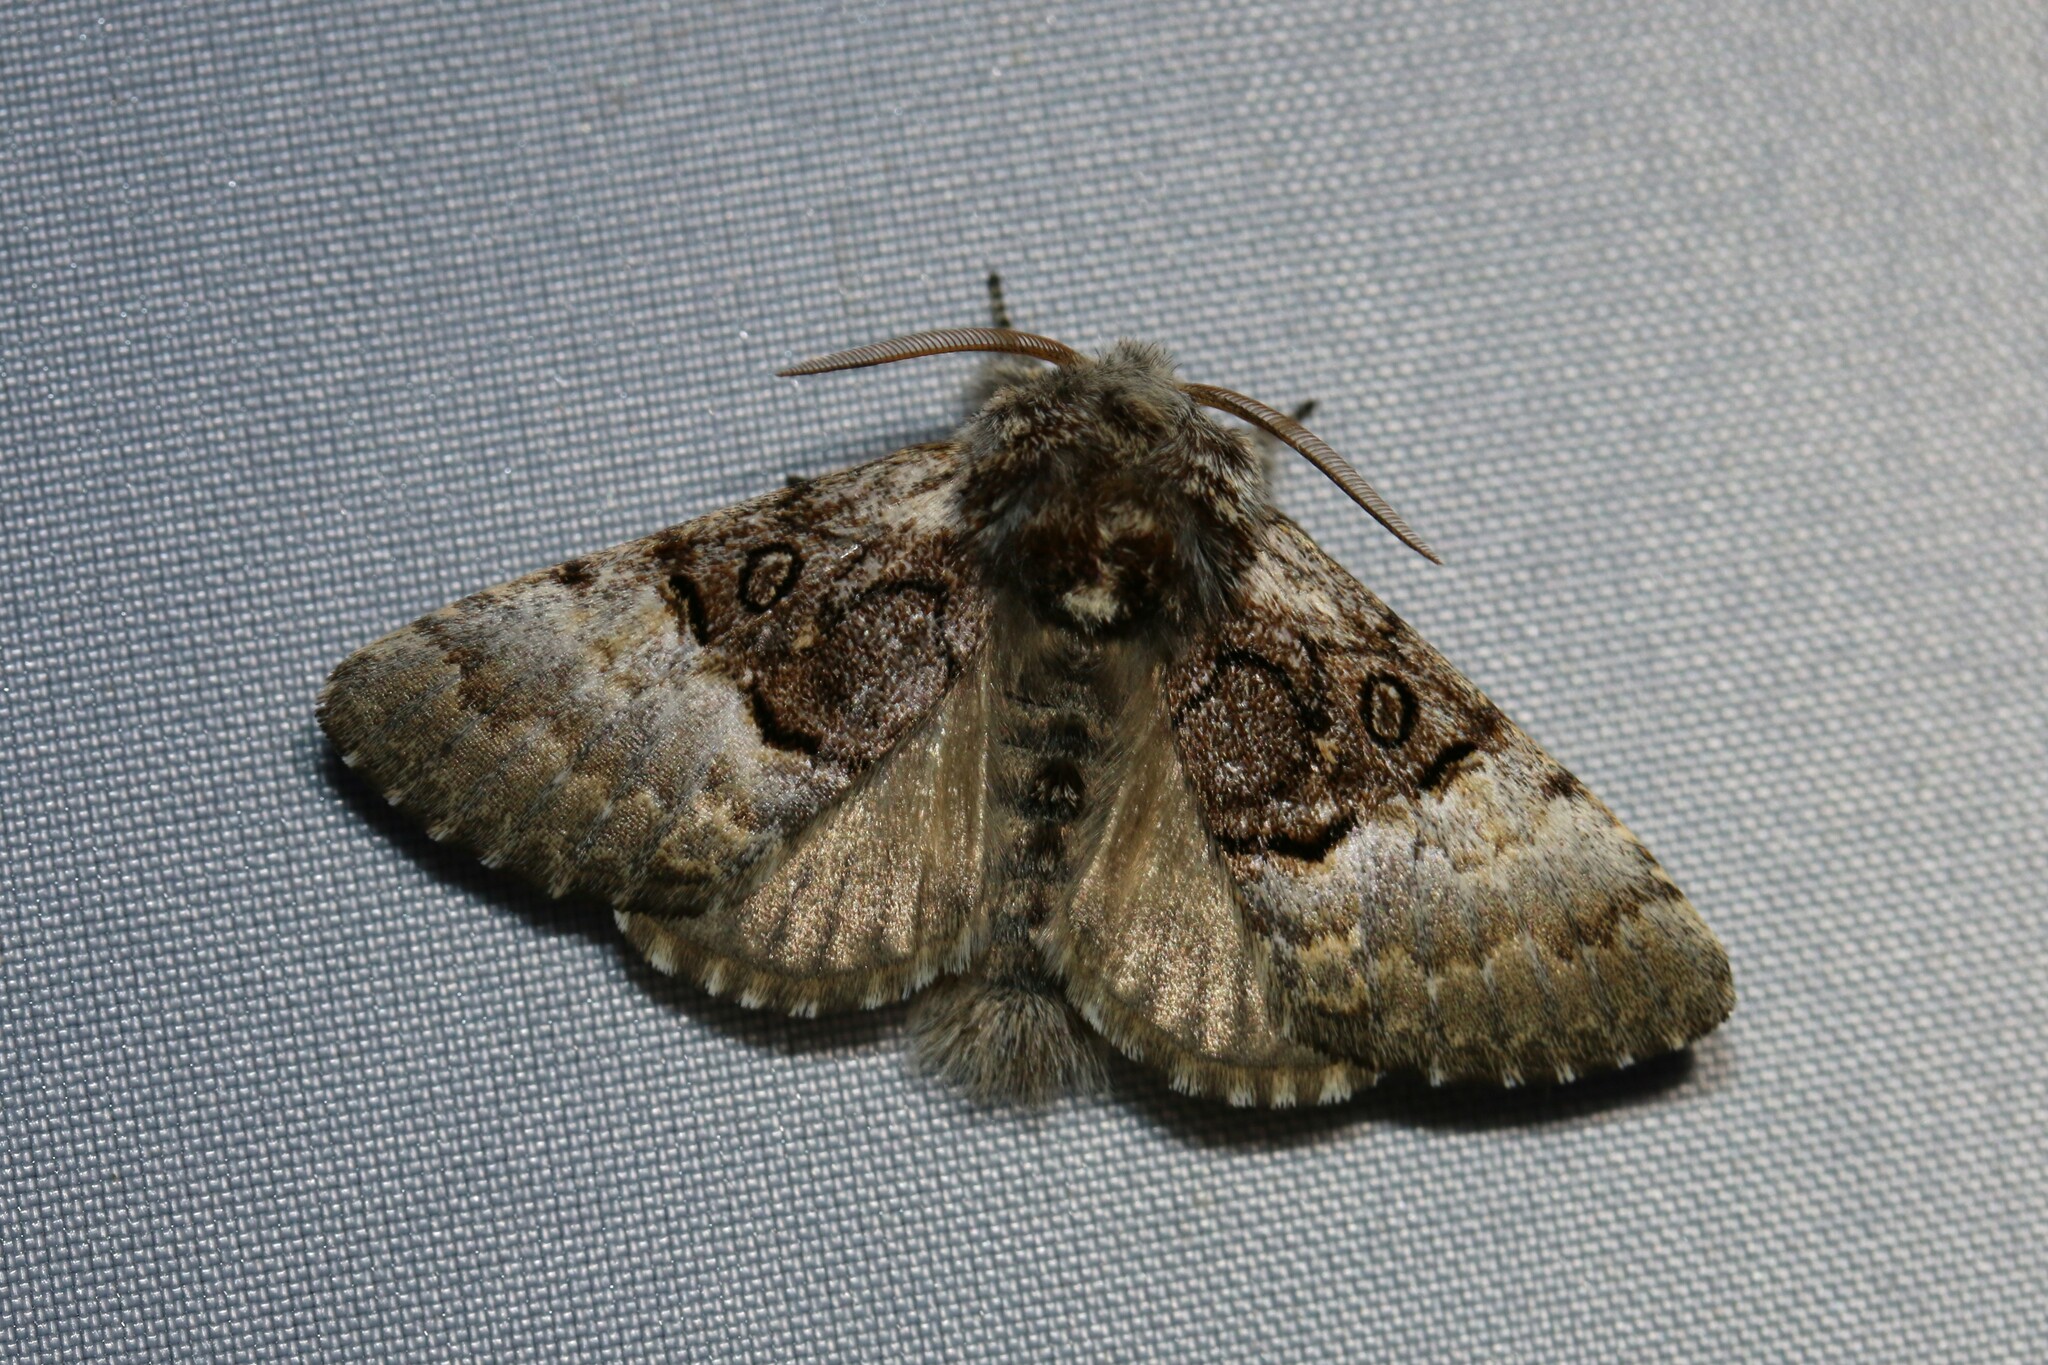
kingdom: Animalia
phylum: Arthropoda
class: Insecta
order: Lepidoptera
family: Noctuidae
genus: Colocasia
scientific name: Colocasia coryli
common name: Nut-tree tussock
